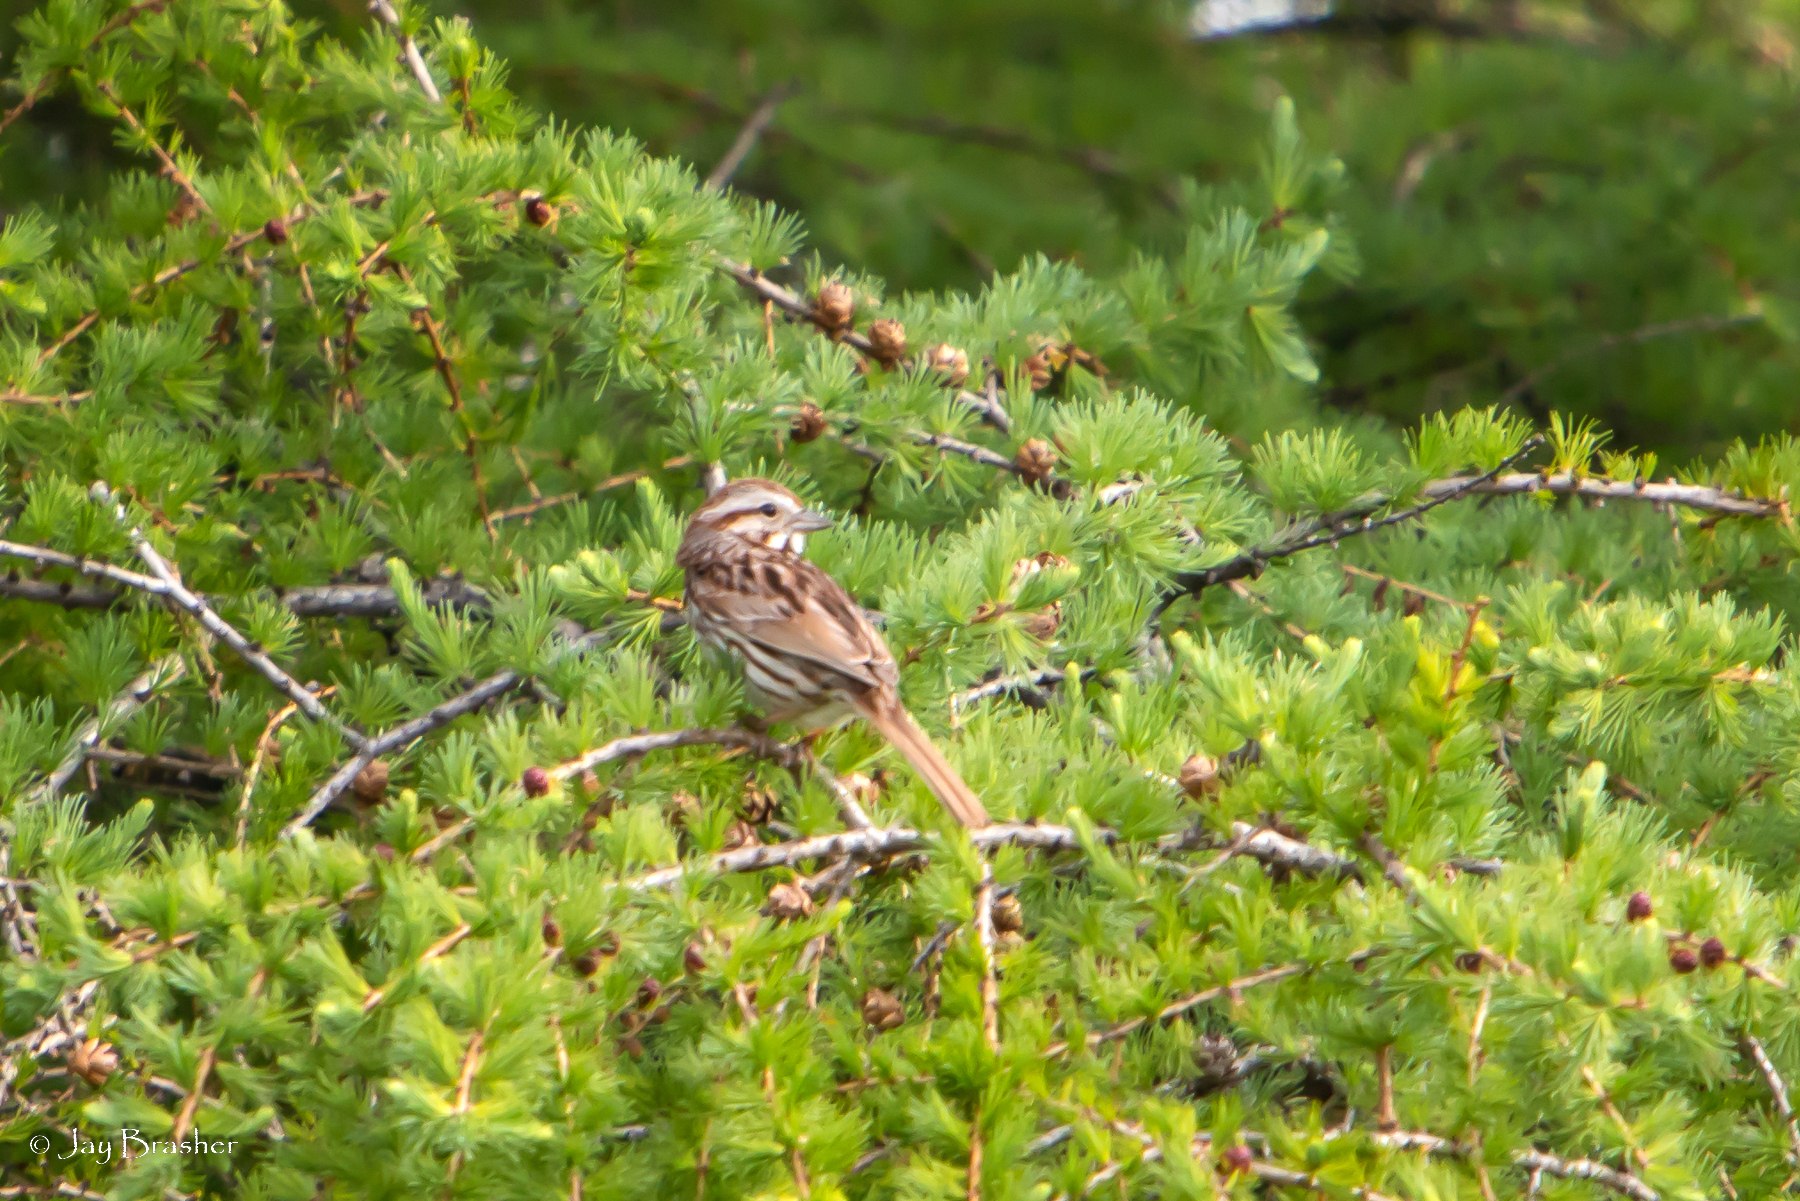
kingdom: Animalia
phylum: Chordata
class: Aves
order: Passeriformes
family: Passerellidae
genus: Melospiza
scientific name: Melospiza melodia
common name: Song sparrow
